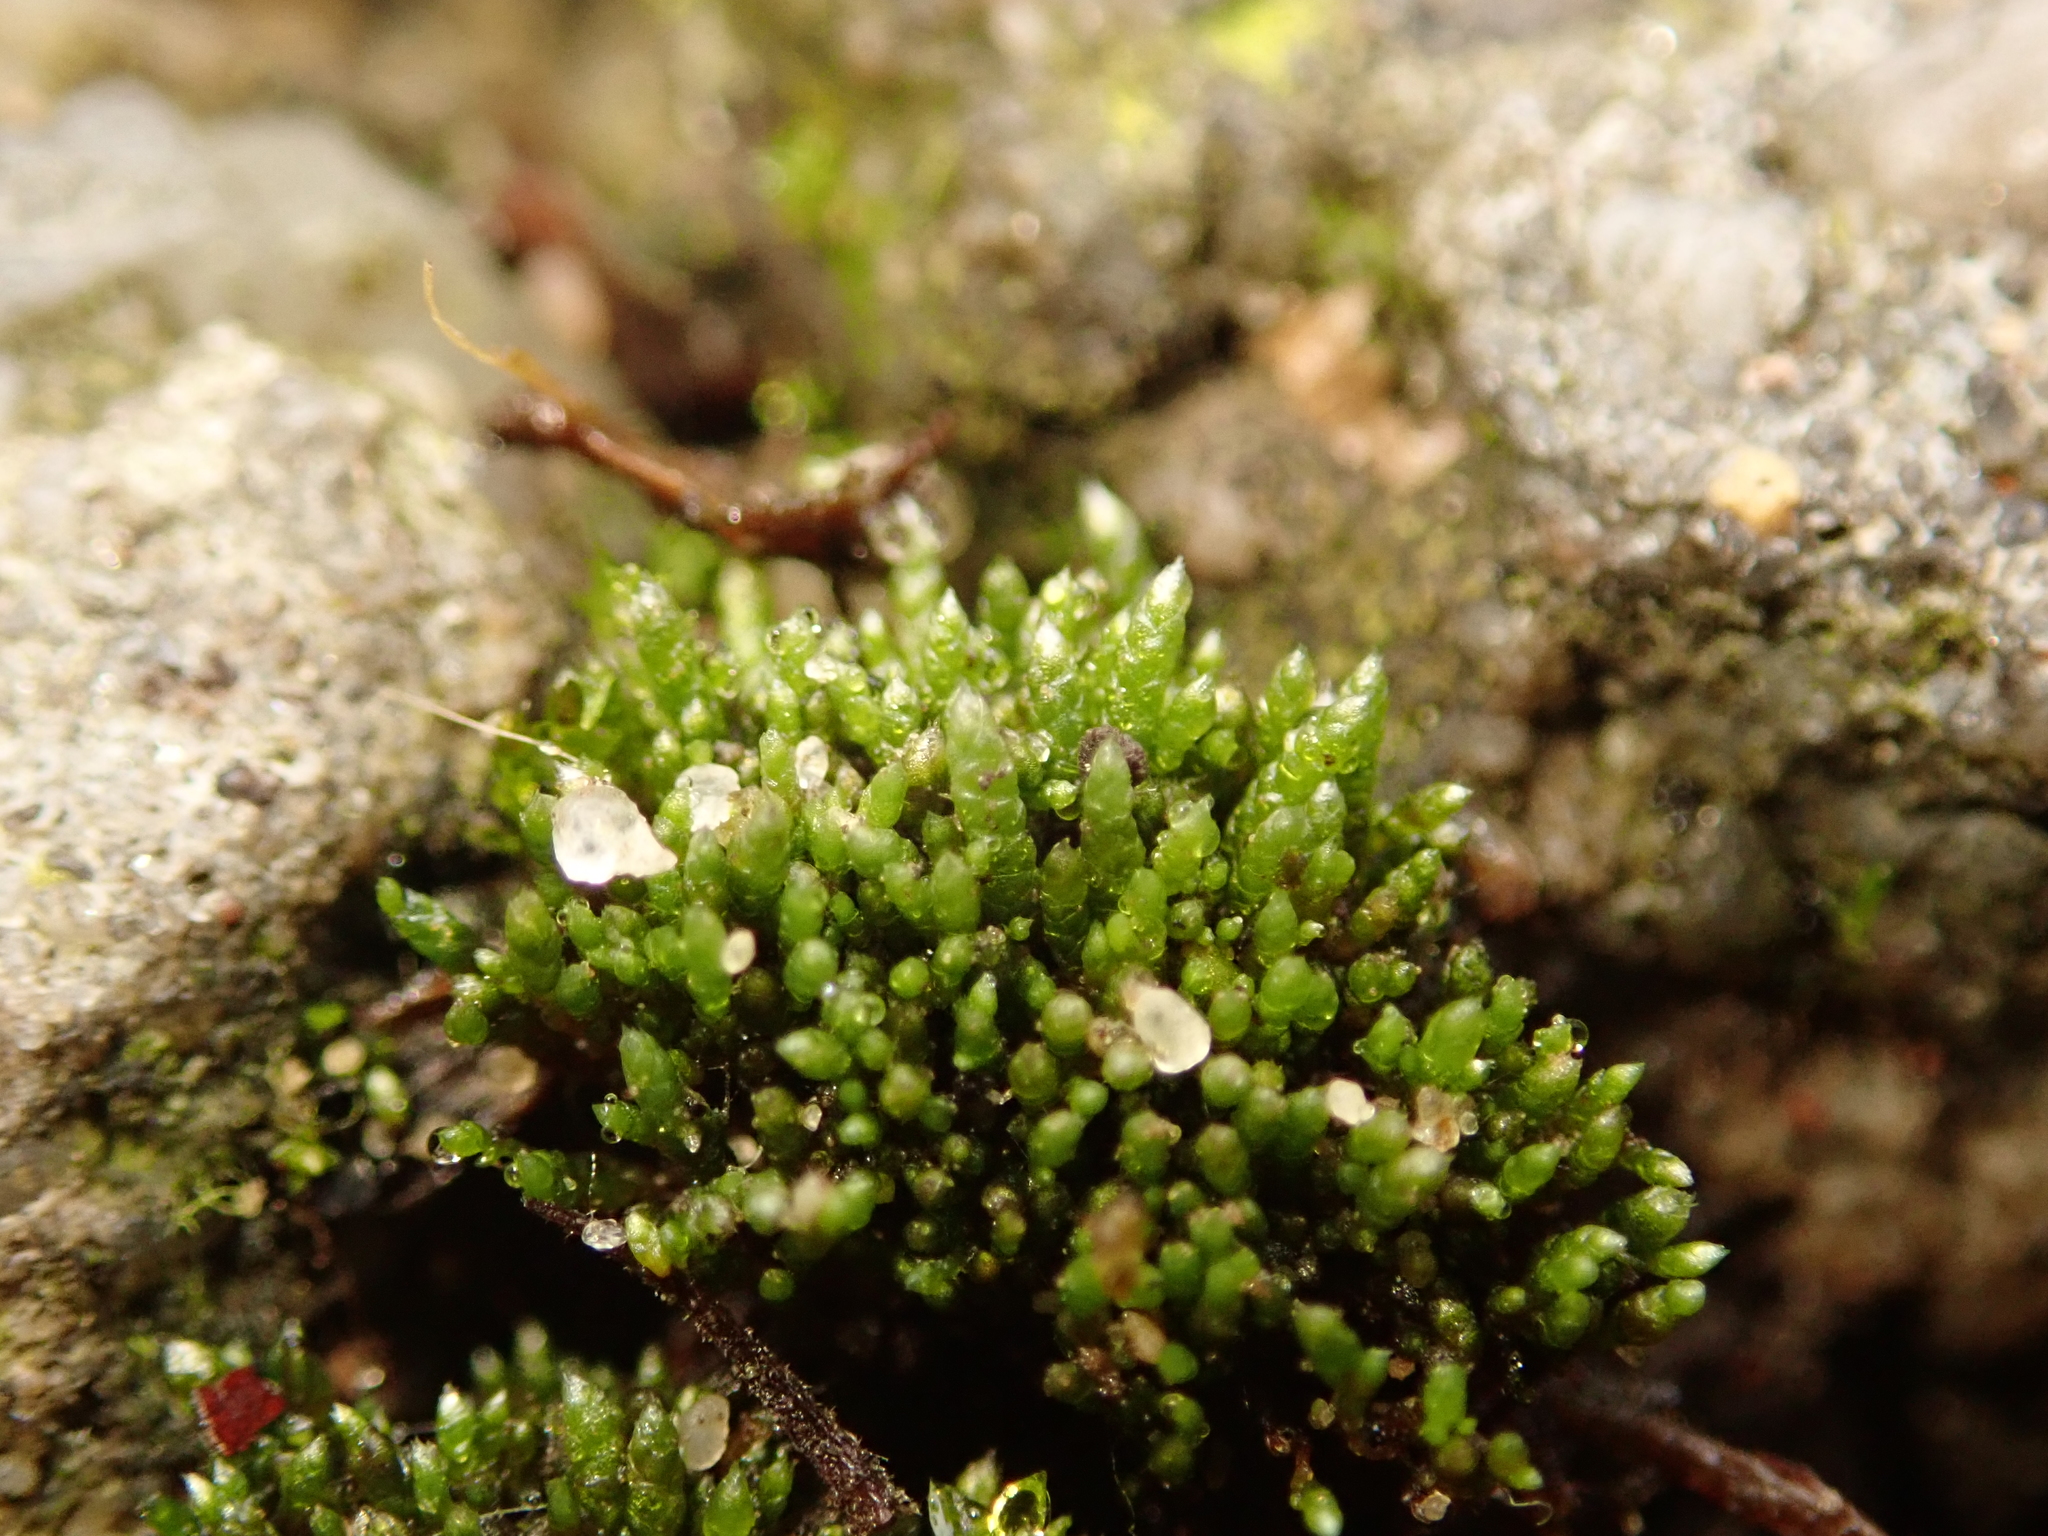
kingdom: Plantae
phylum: Bryophyta
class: Bryopsida
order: Bryales
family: Bryaceae
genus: Bryum
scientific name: Bryum argenteum
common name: Silver-moss
